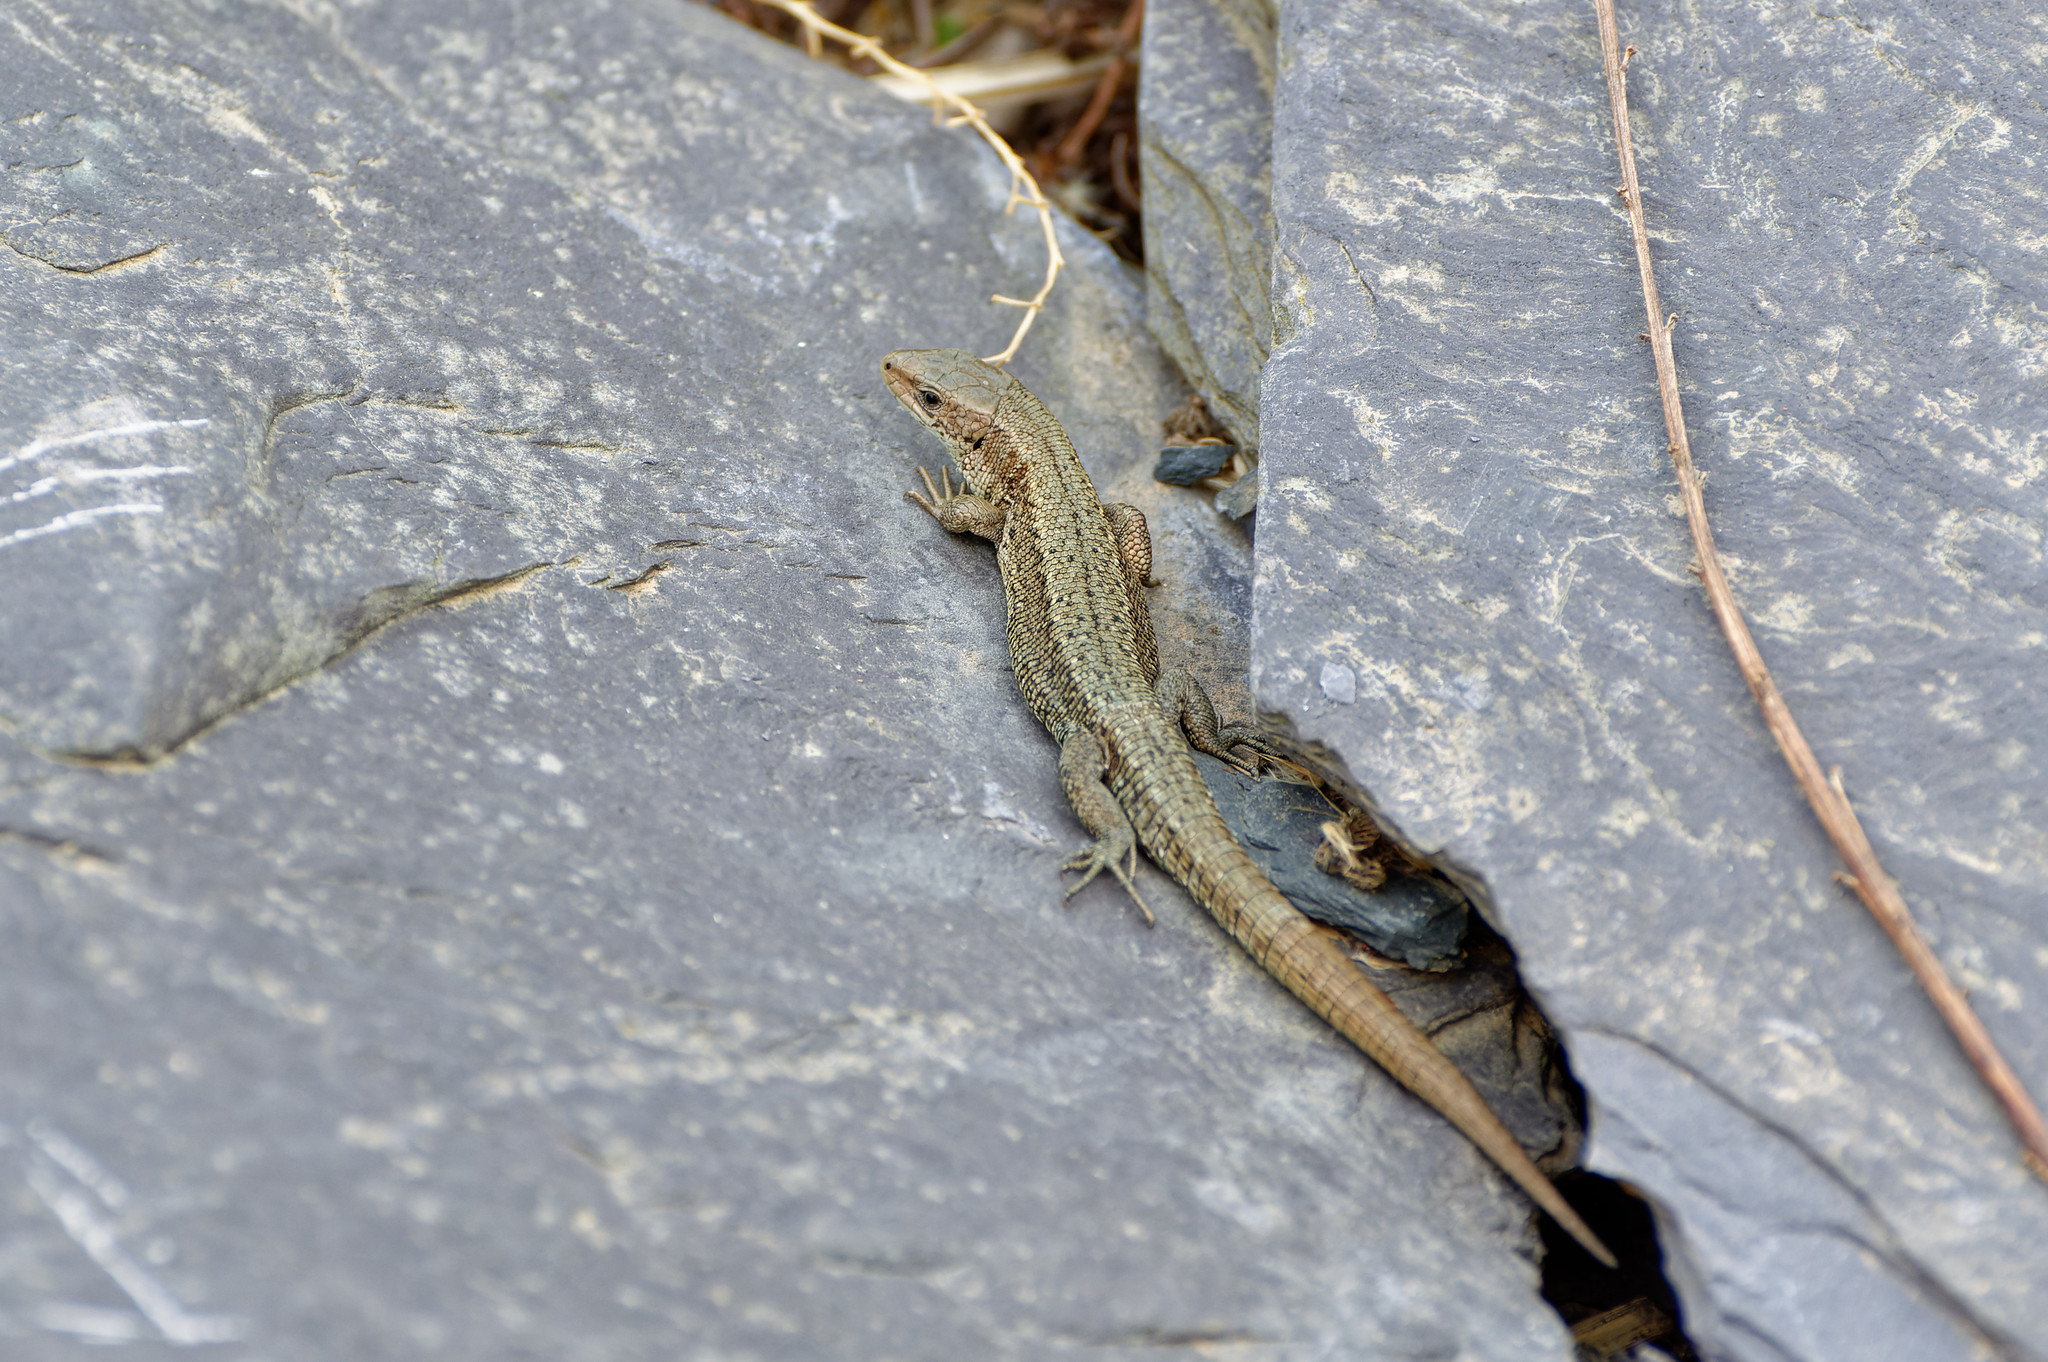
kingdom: Animalia
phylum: Chordata
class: Squamata
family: Lacertidae
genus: Zootoca
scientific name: Zootoca vivipara
